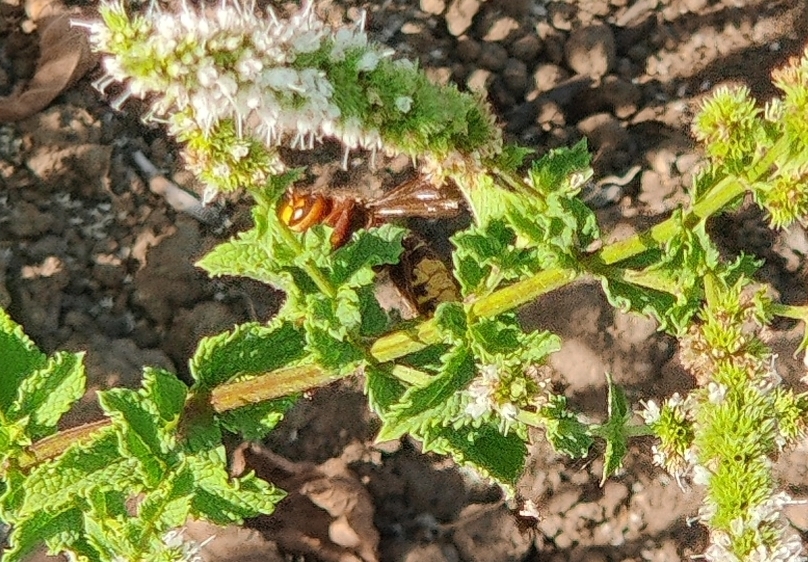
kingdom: Animalia
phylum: Arthropoda
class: Insecta
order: Hymenoptera
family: Vespidae
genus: Vespa
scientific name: Vespa crabro
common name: Hornet
